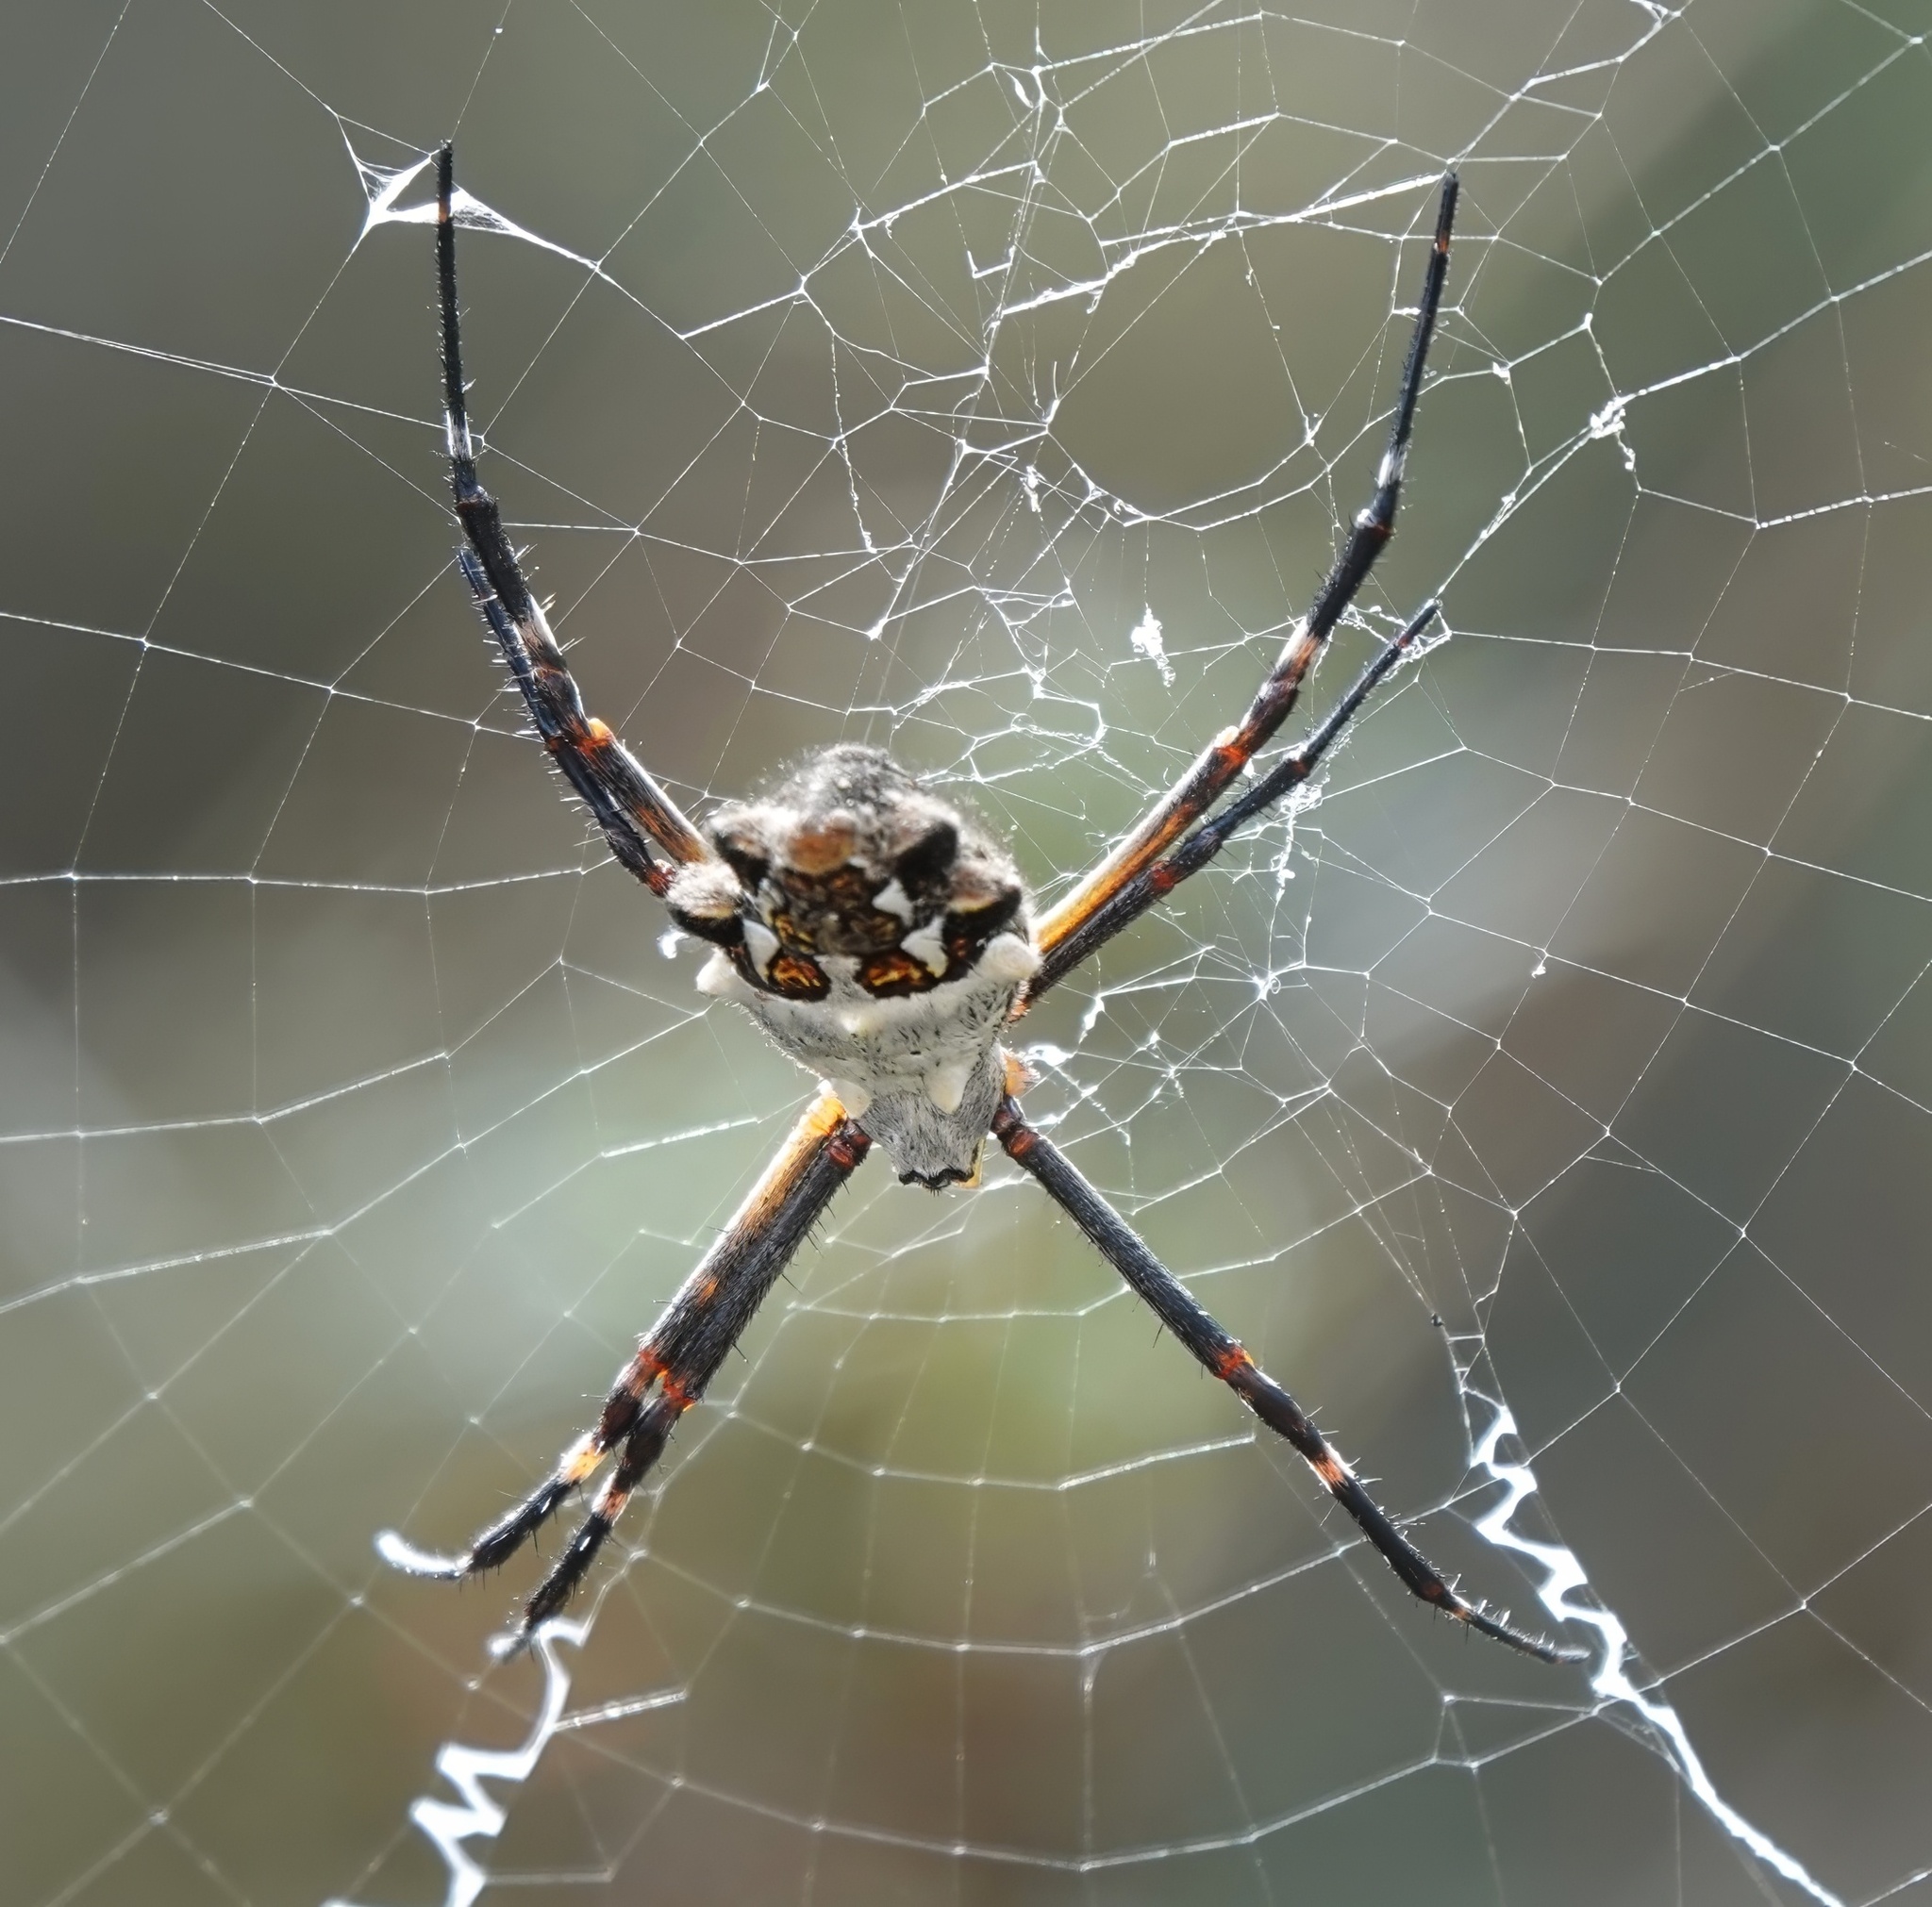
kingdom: Animalia
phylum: Arthropoda
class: Arachnida
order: Araneae
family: Araneidae
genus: Argiope
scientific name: Argiope argentata
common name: Orb weavers
